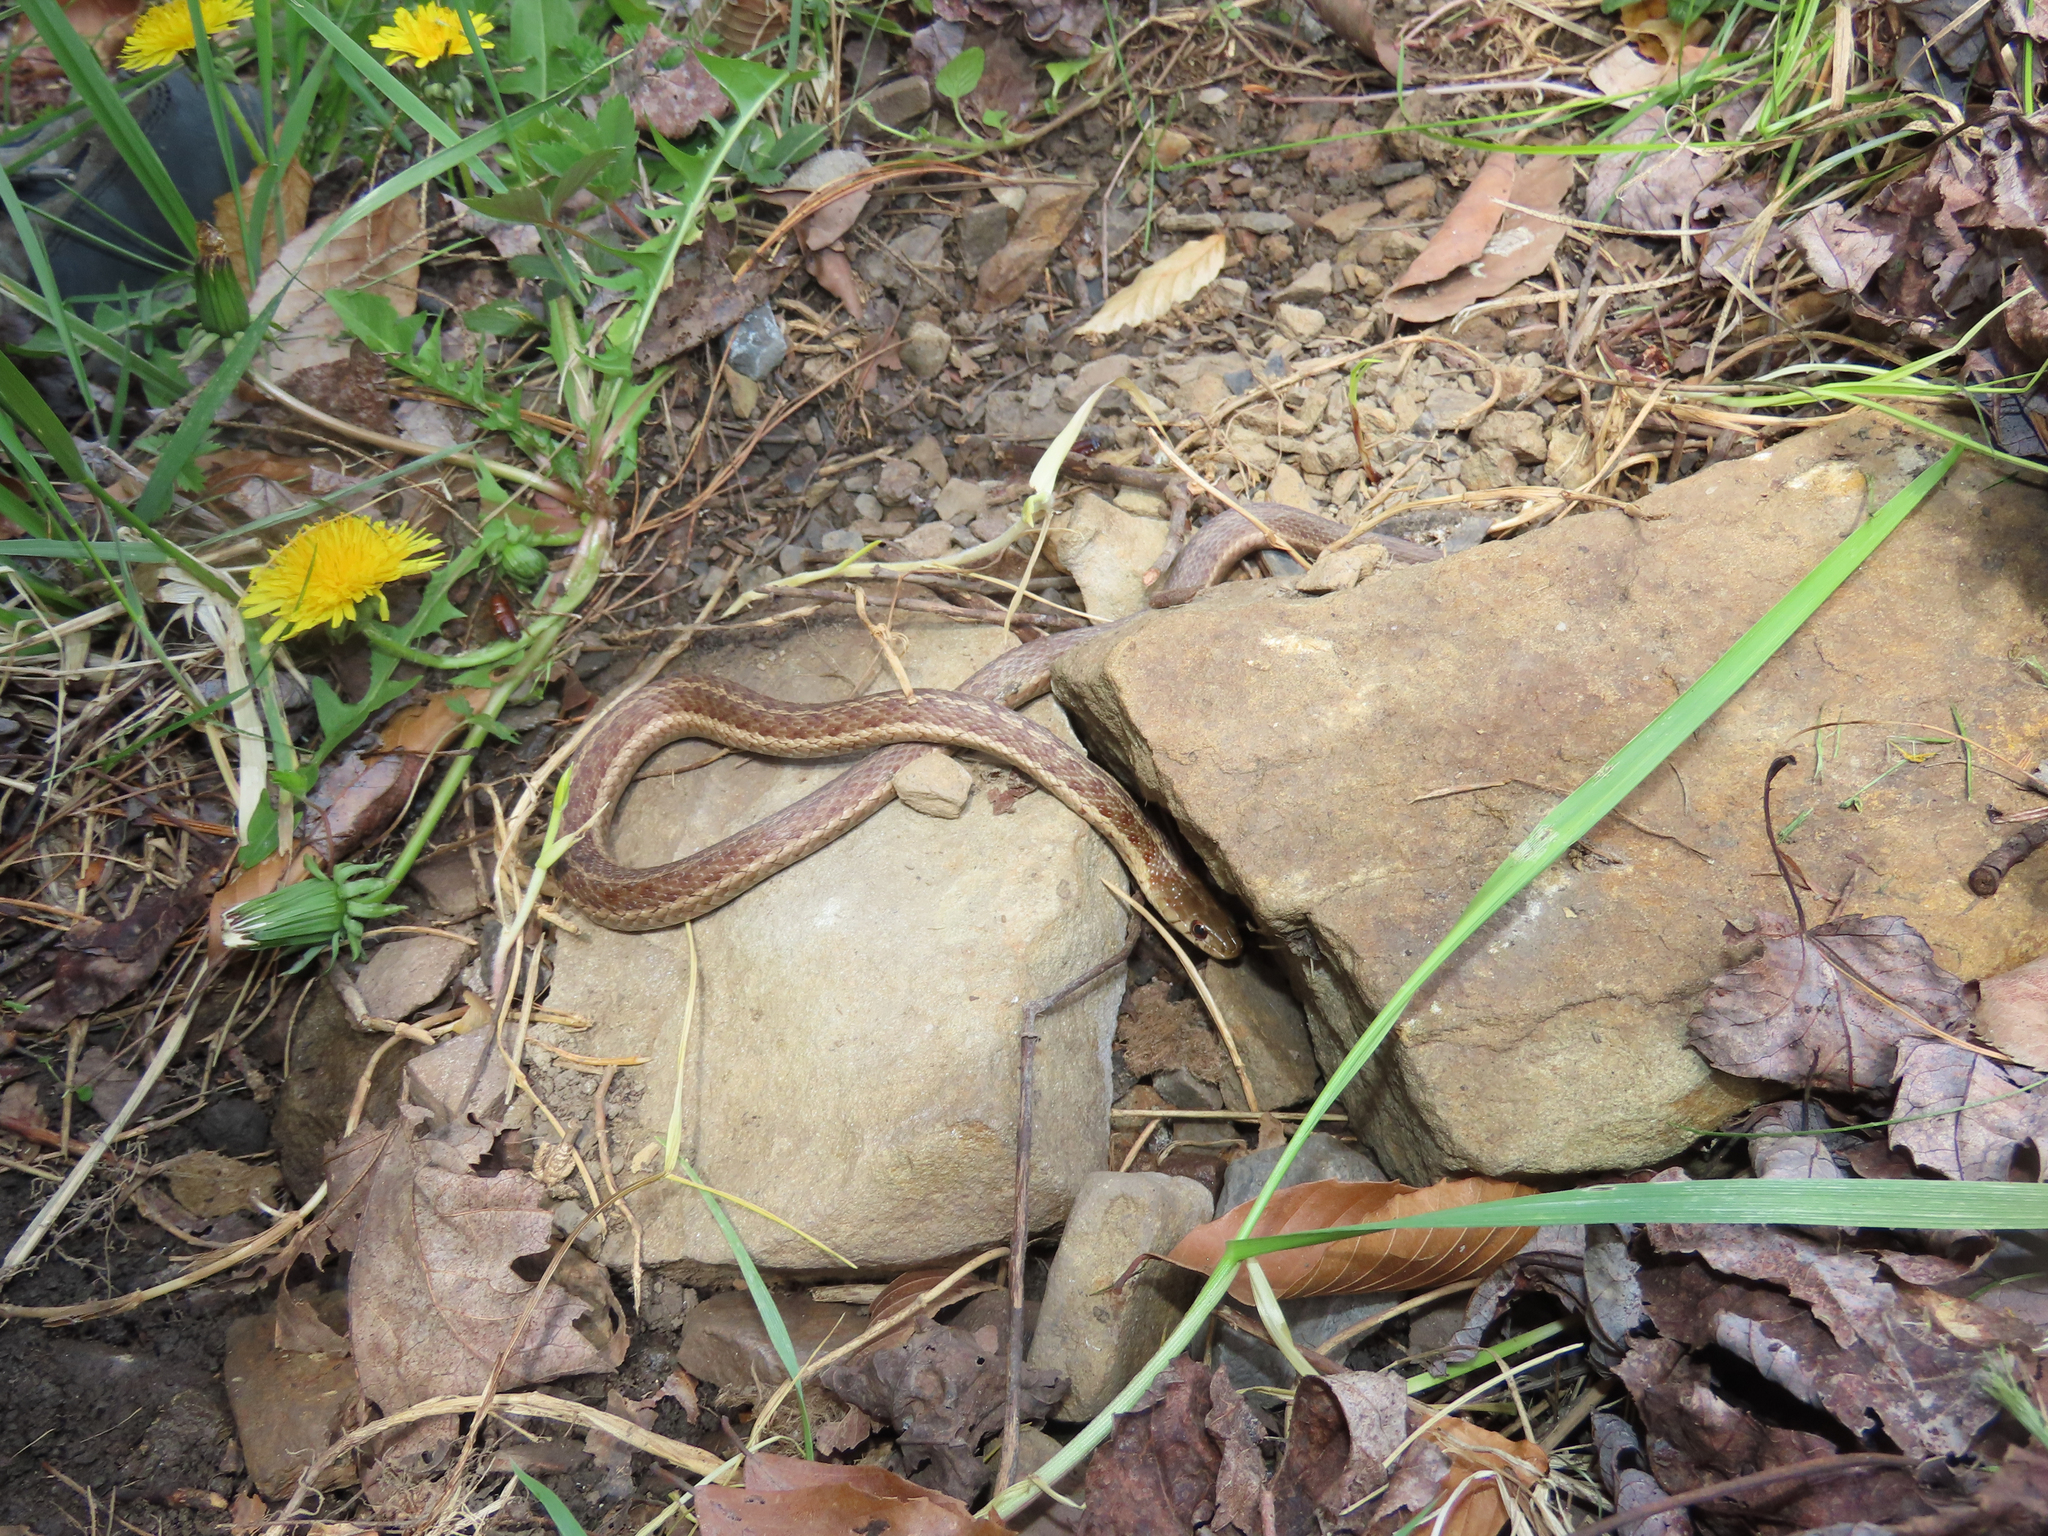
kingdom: Animalia
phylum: Chordata
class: Squamata
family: Colubridae
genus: Thamnophis
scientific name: Thamnophis sirtalis
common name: Common garter snake
